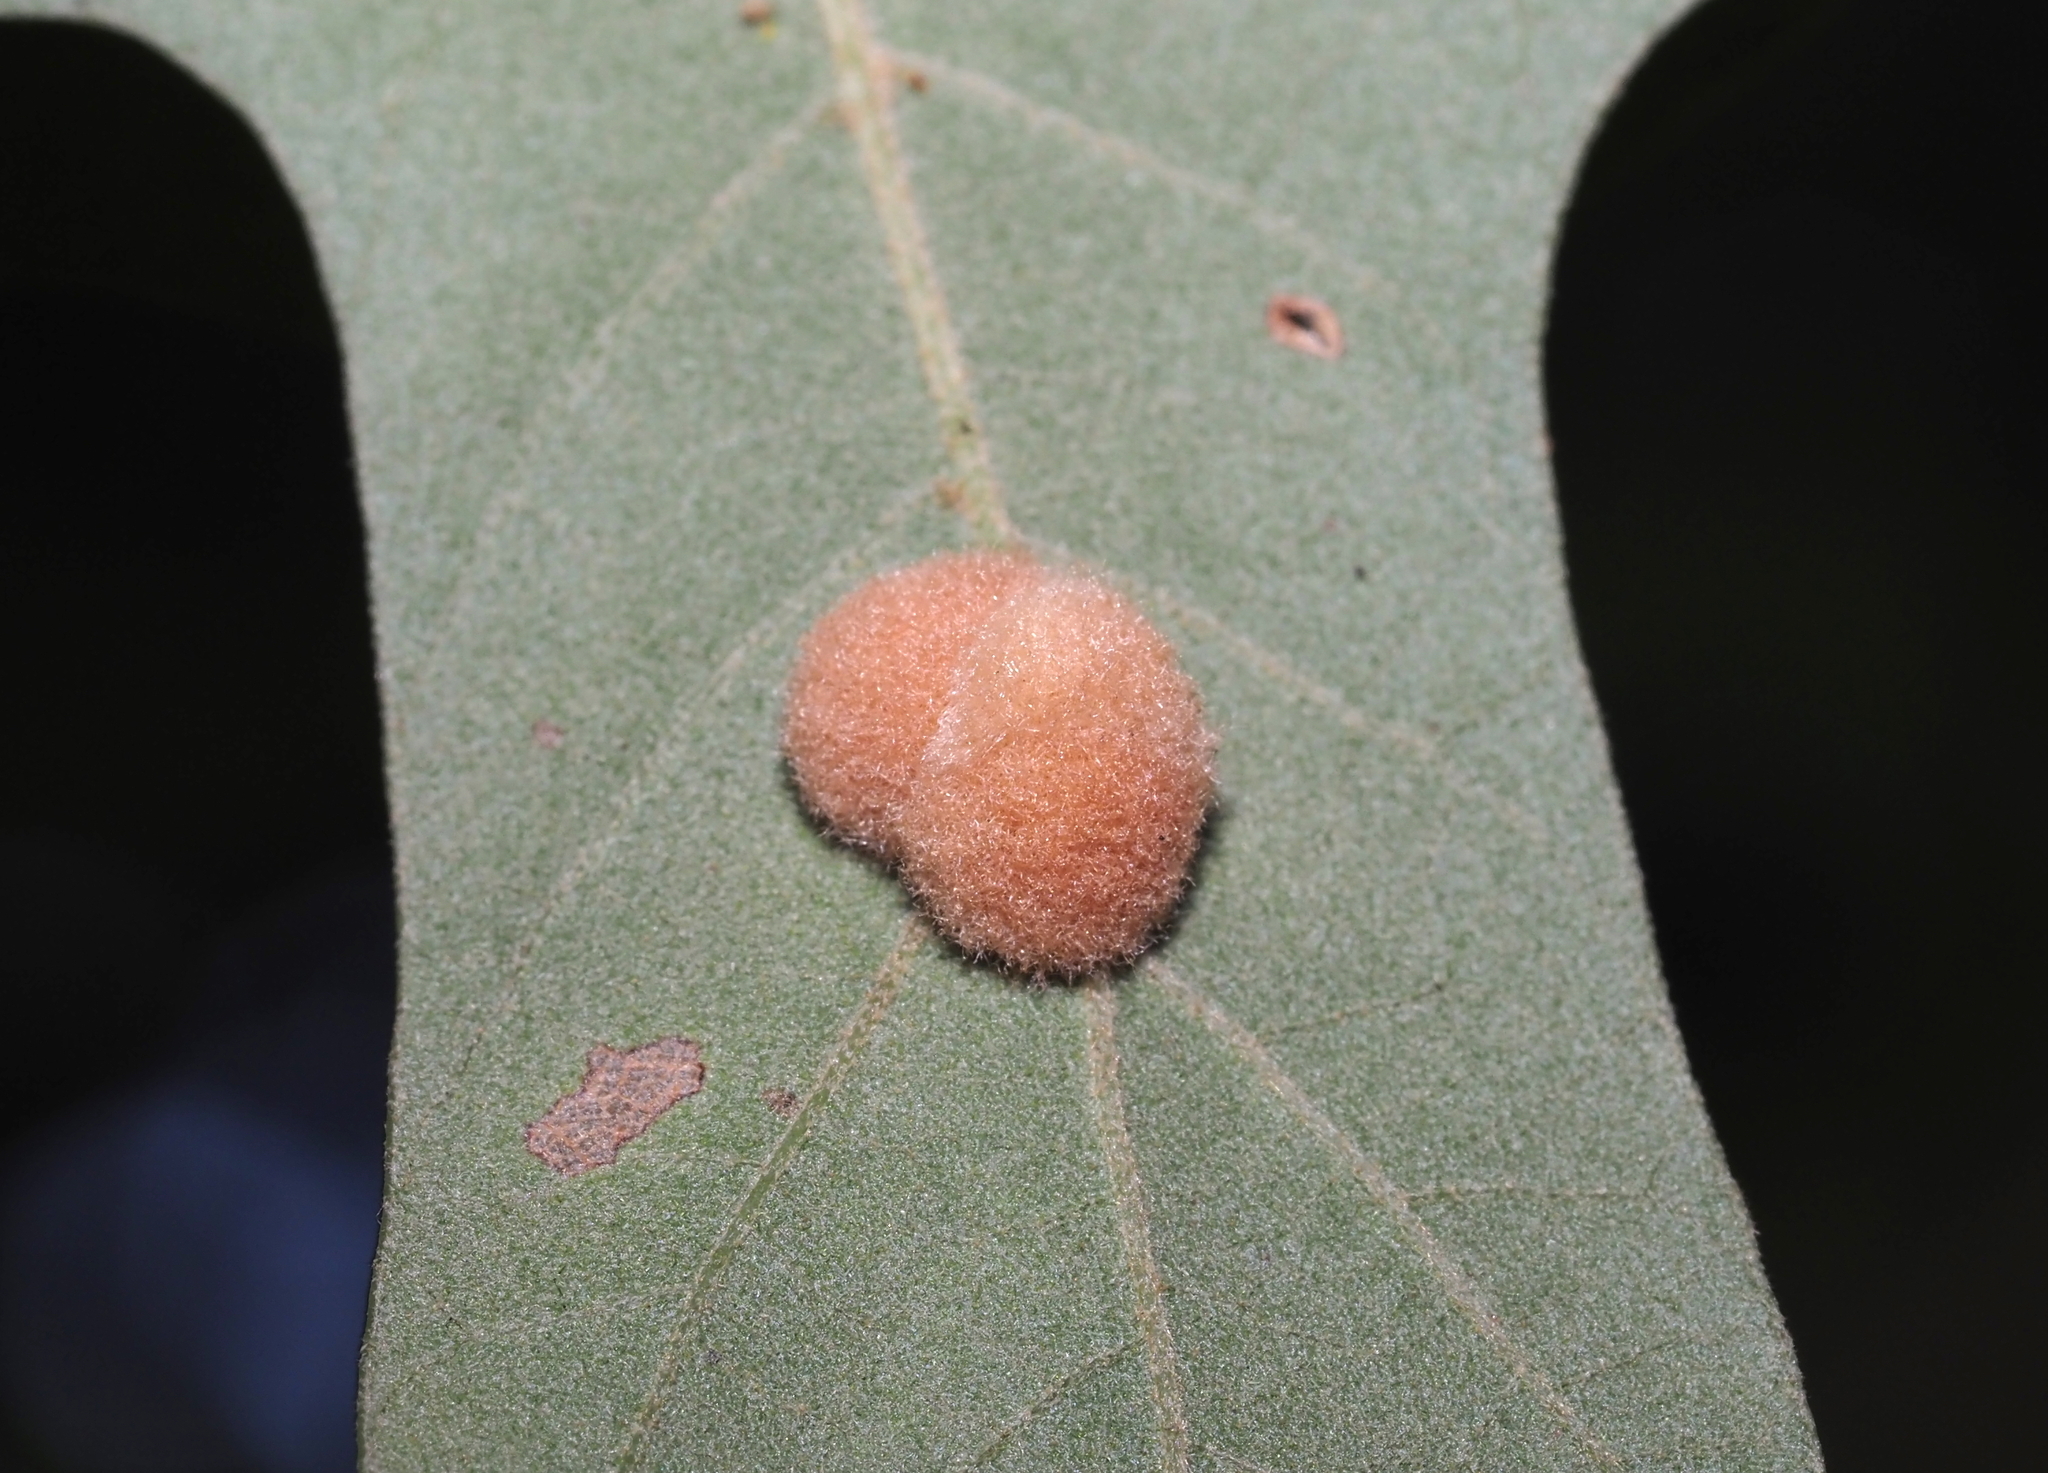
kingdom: Animalia
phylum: Arthropoda
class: Insecta
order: Hymenoptera
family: Cynipidae
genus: Callirhytis
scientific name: Callirhytis
